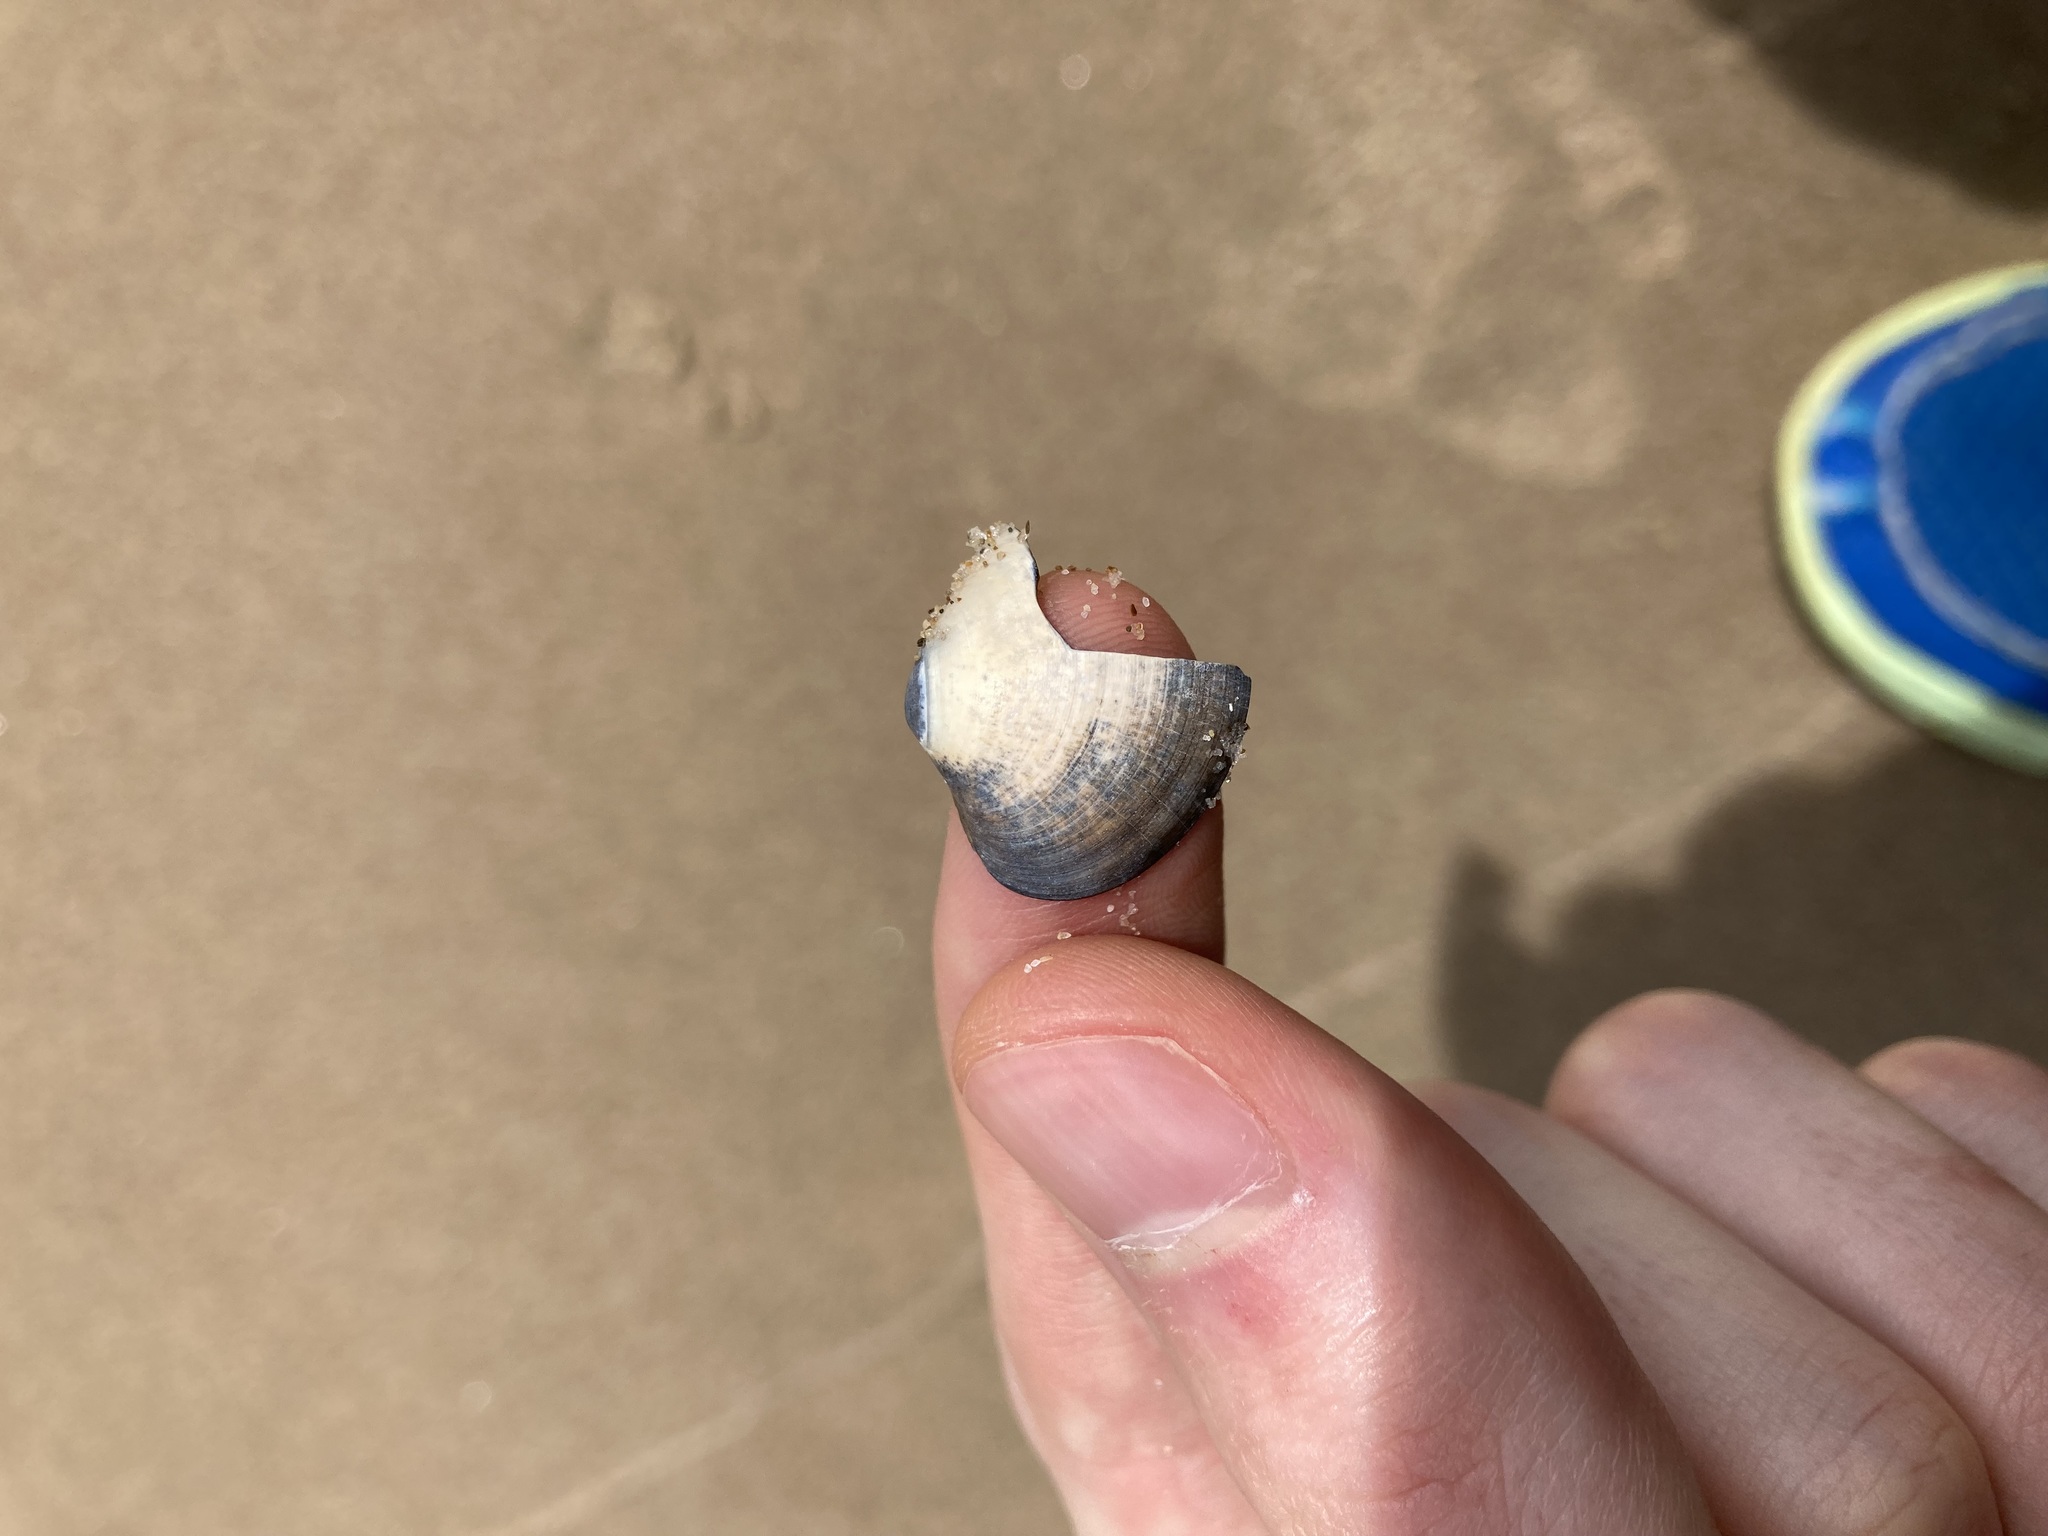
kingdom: Animalia
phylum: Mollusca
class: Bivalvia
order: Venerida
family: Veneridae
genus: Eumarcia
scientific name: Eumarcia fumigata
